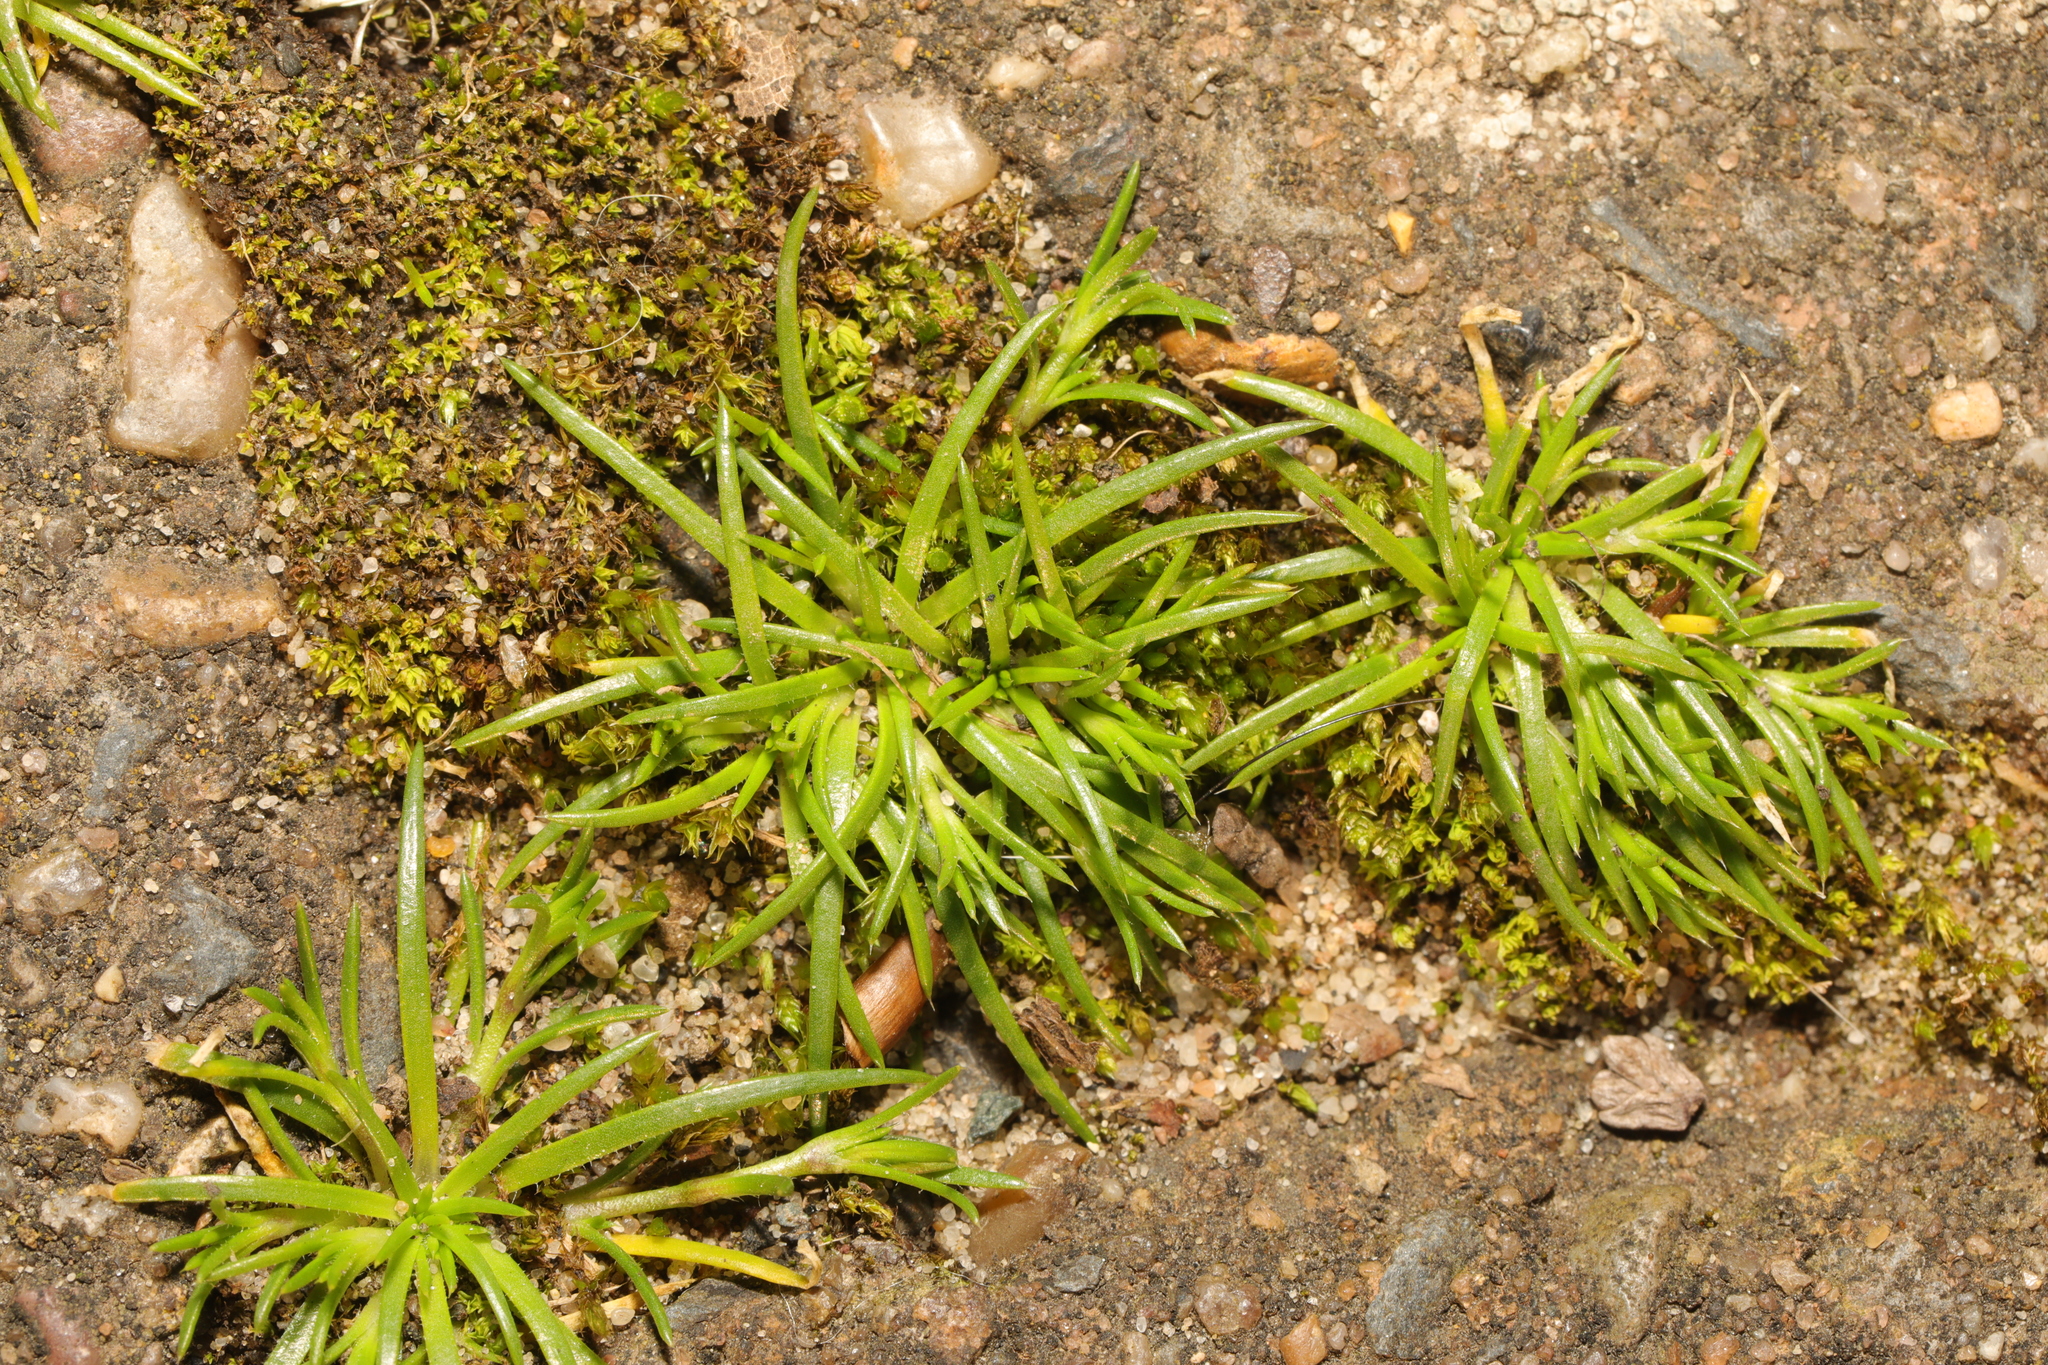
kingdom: Plantae
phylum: Tracheophyta
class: Magnoliopsida
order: Caryophyllales
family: Caryophyllaceae
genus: Sagina
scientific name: Sagina procumbens
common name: Procumbent pearlwort
